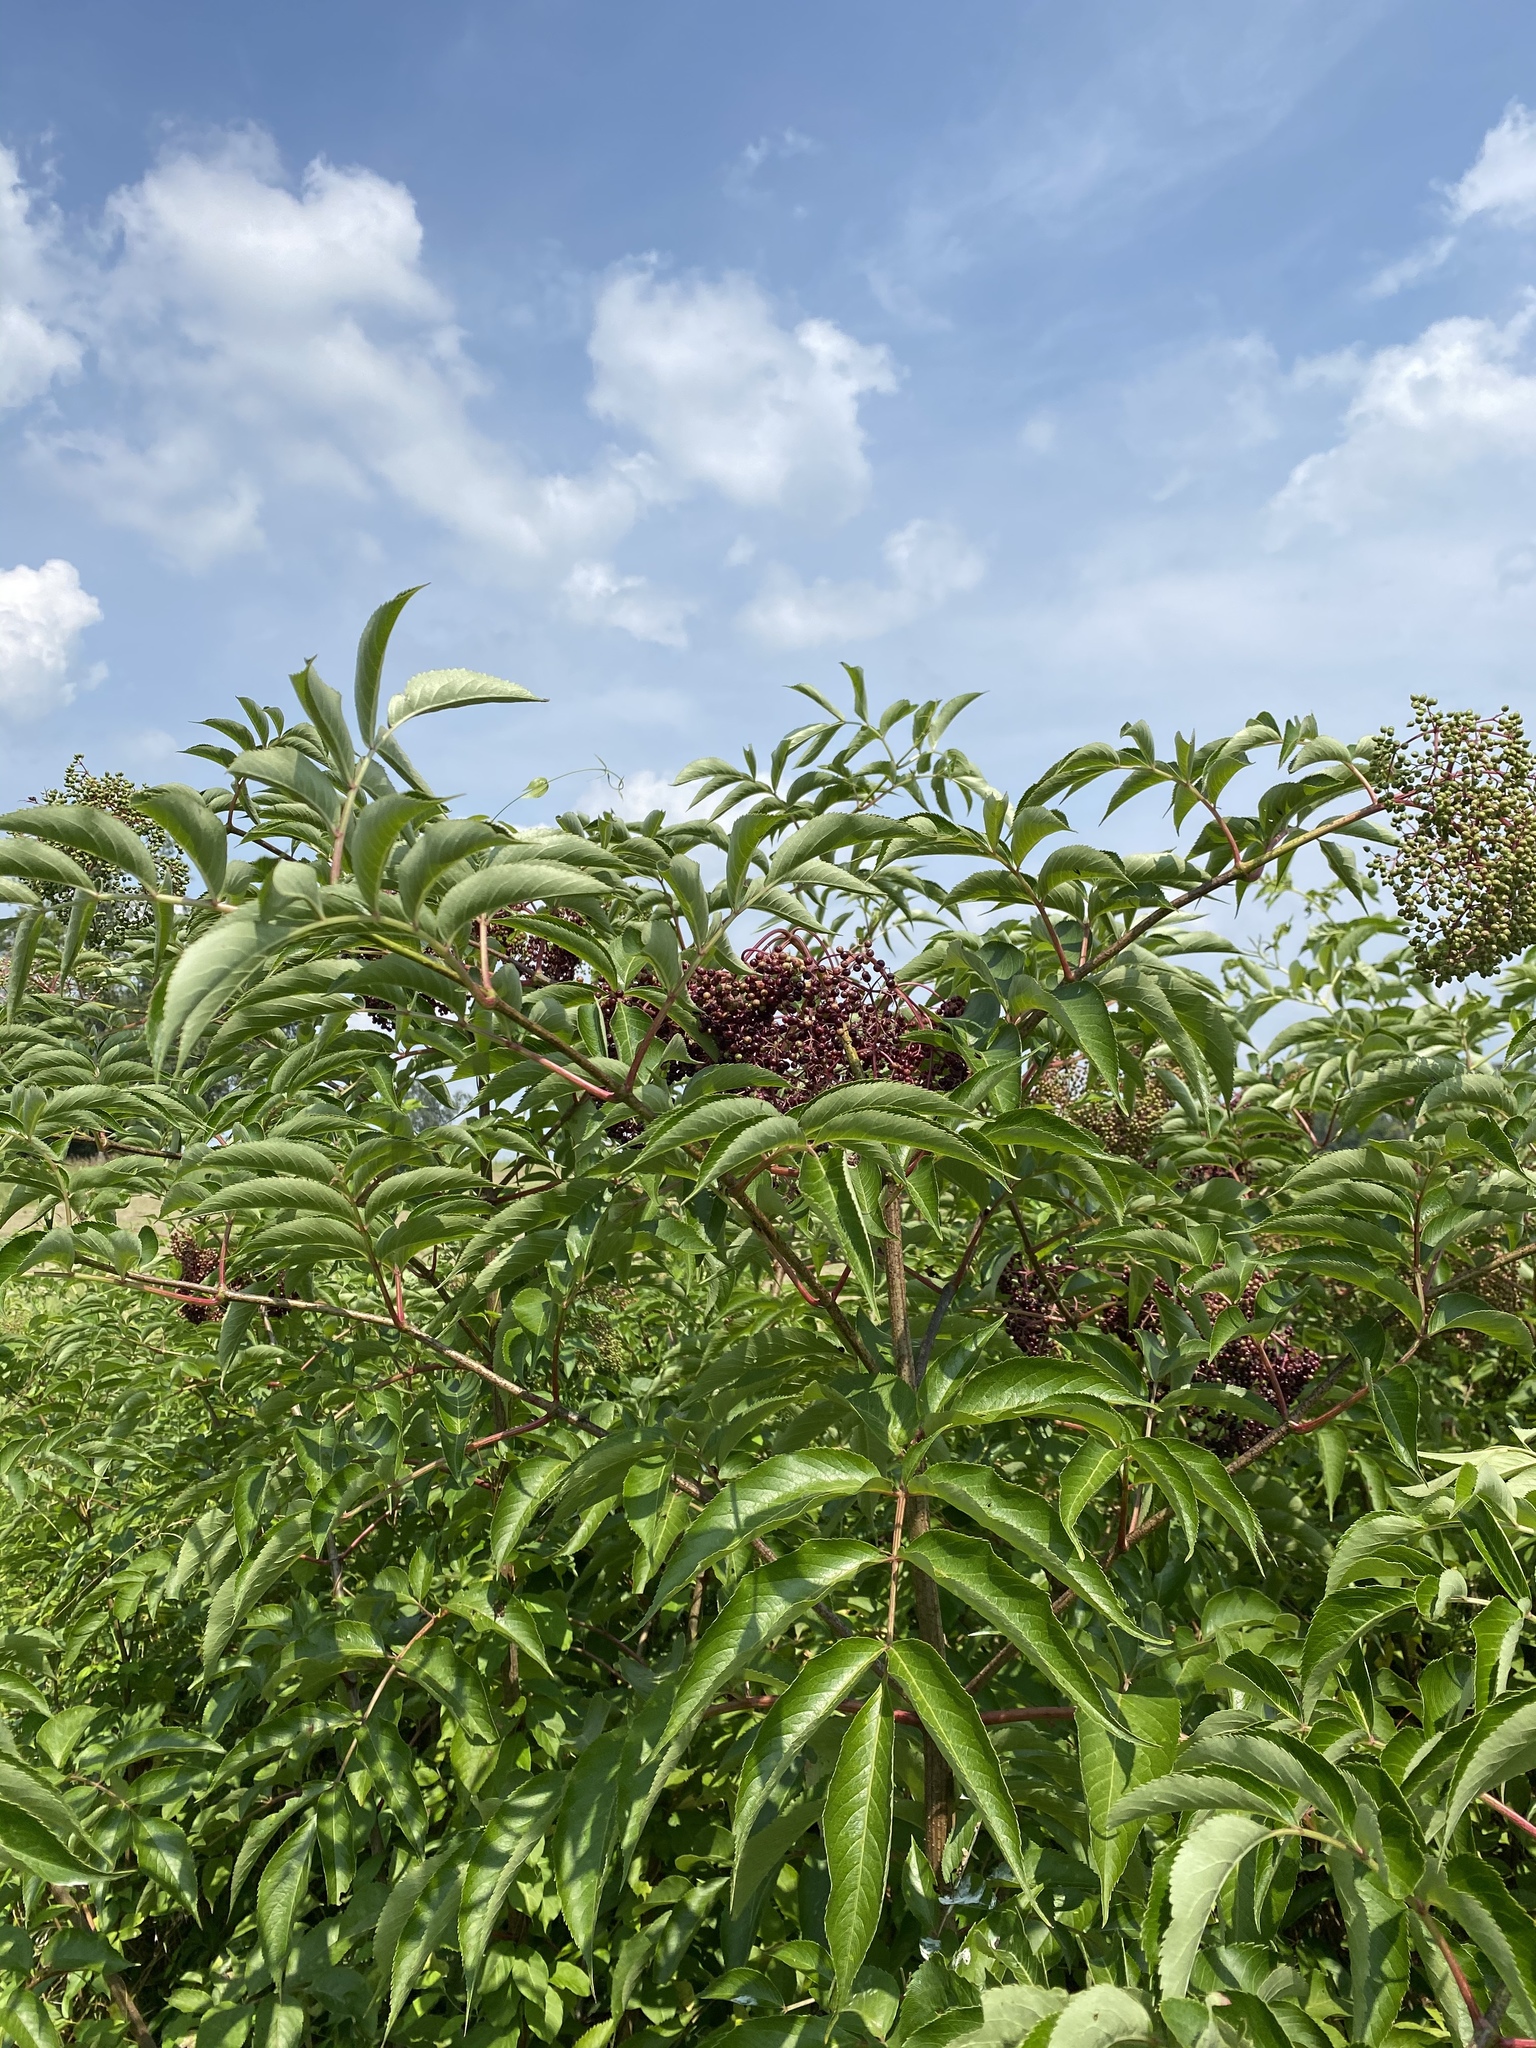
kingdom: Plantae
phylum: Tracheophyta
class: Magnoliopsida
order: Dipsacales
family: Viburnaceae
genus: Sambucus
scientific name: Sambucus canadensis
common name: American elder
